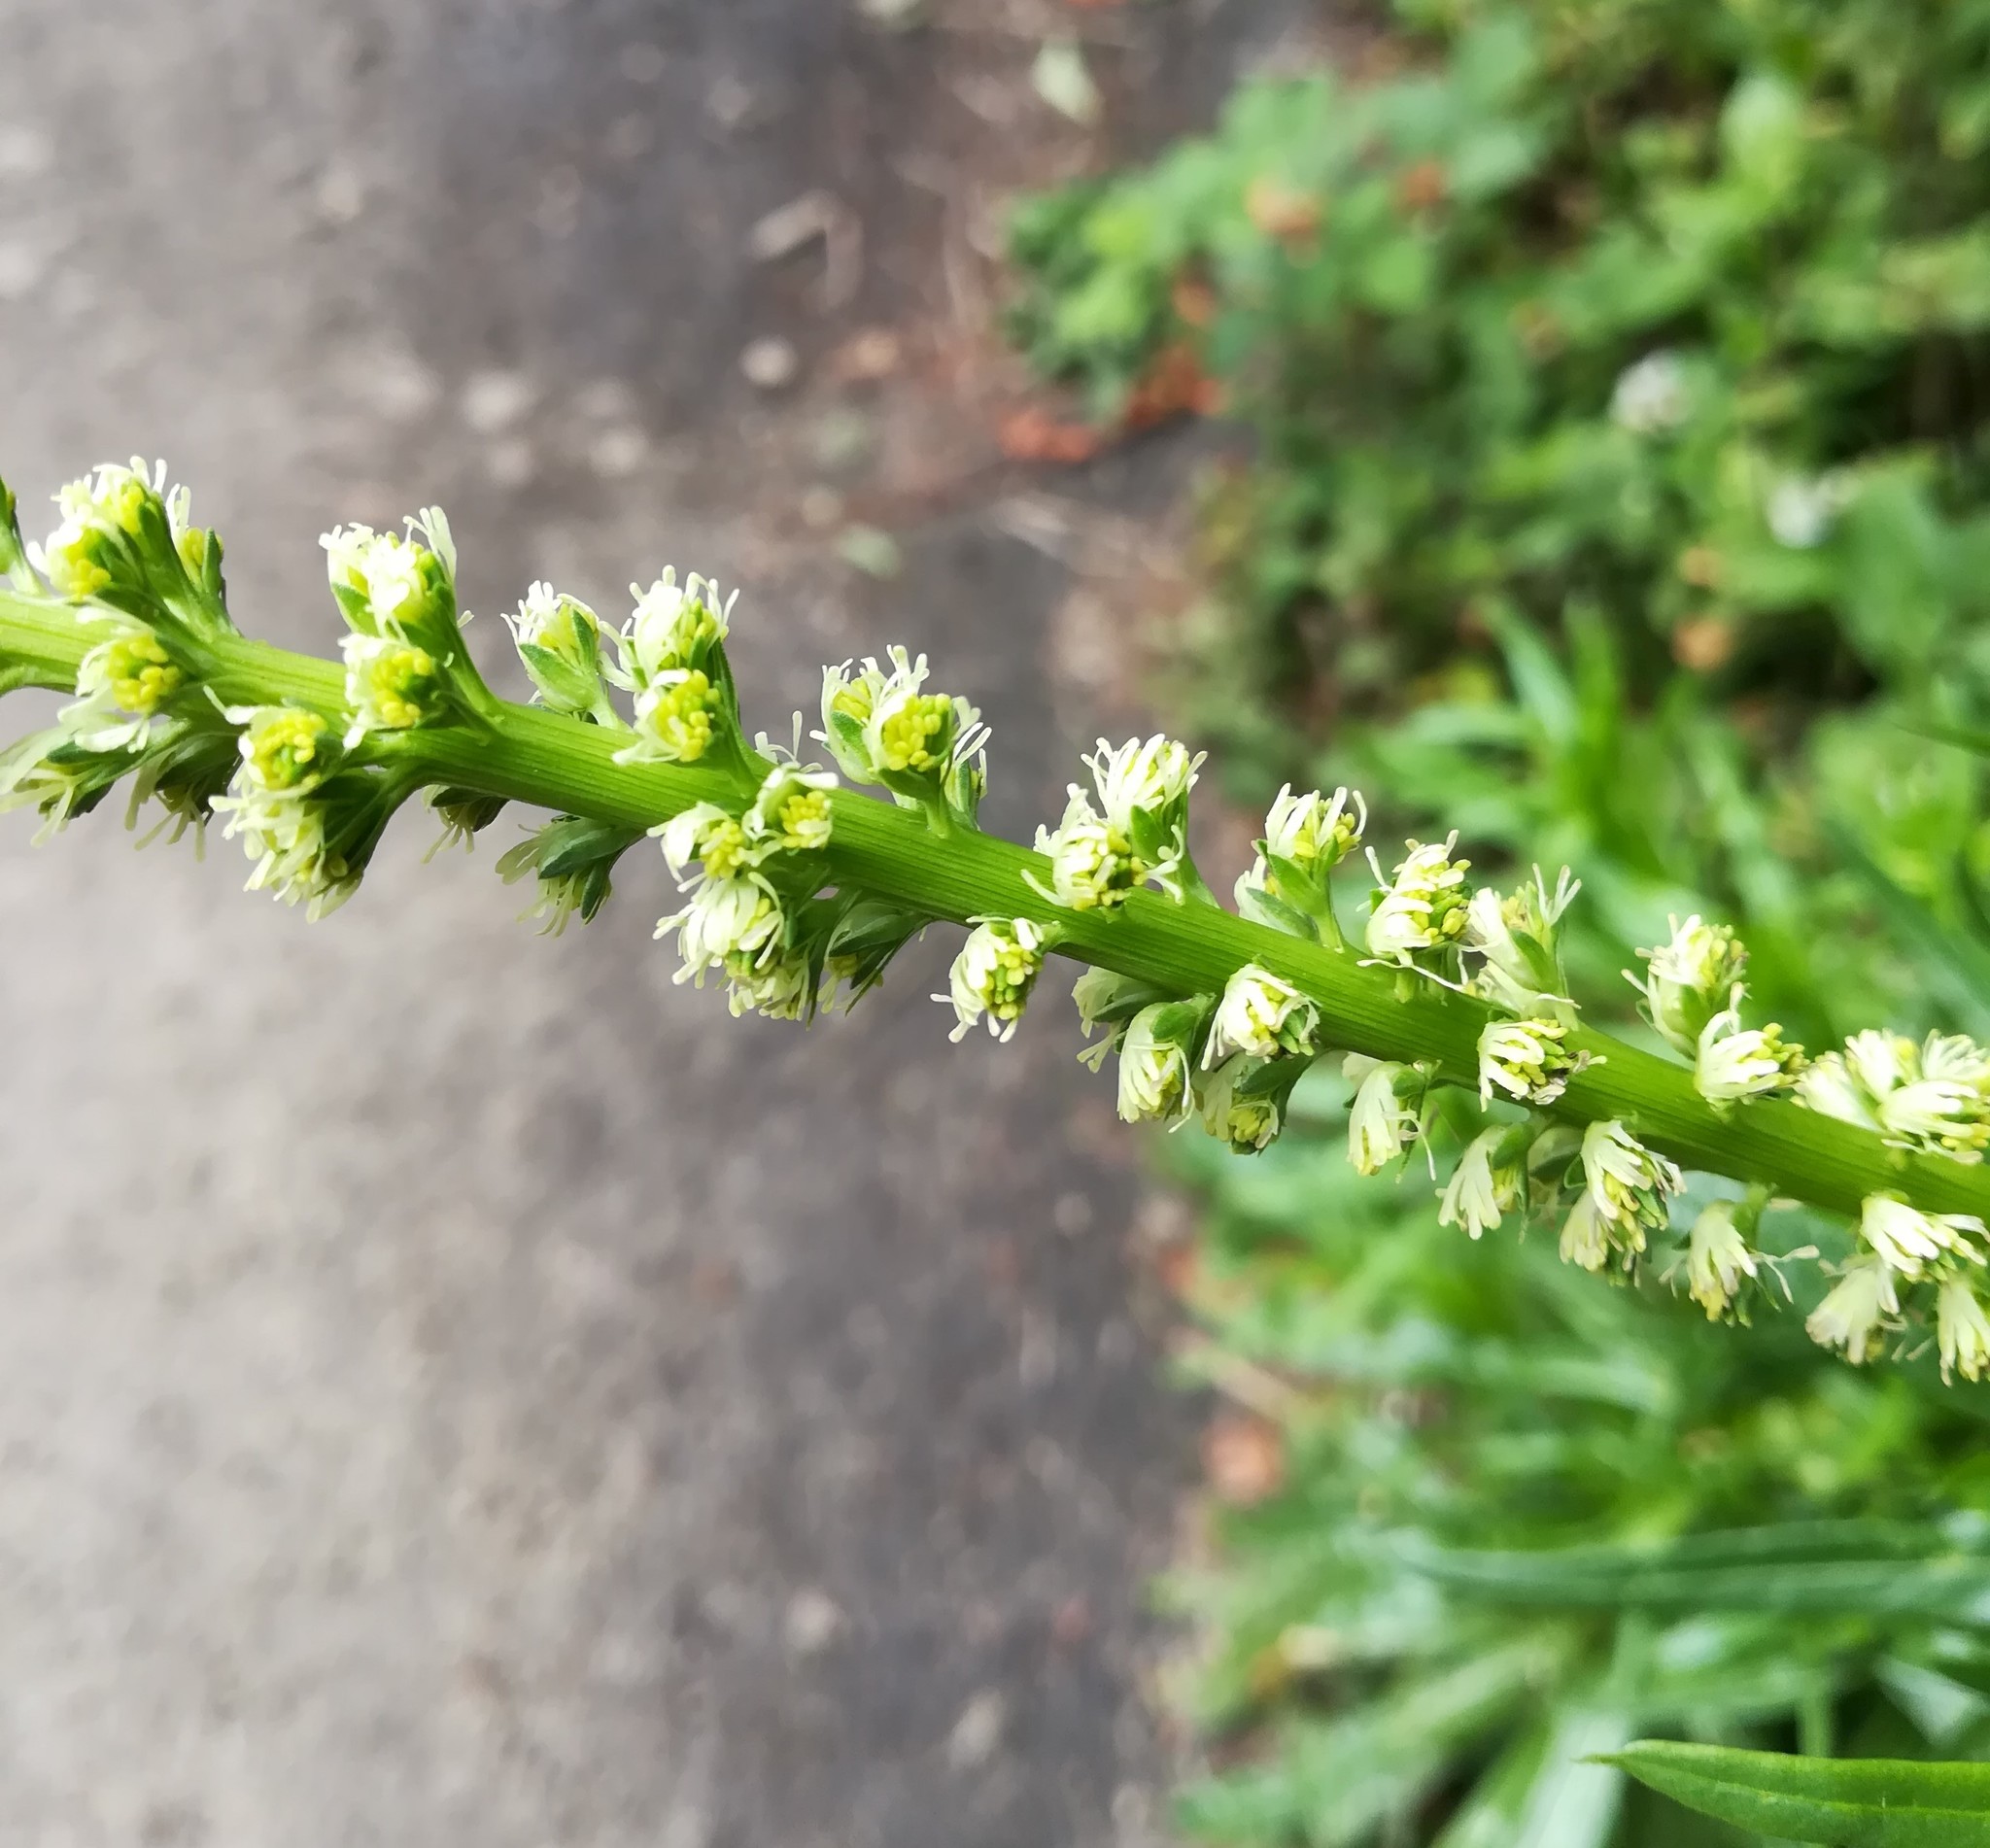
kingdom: Plantae
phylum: Tracheophyta
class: Magnoliopsida
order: Brassicales
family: Resedaceae
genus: Reseda
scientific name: Reseda luteola
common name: Weld
